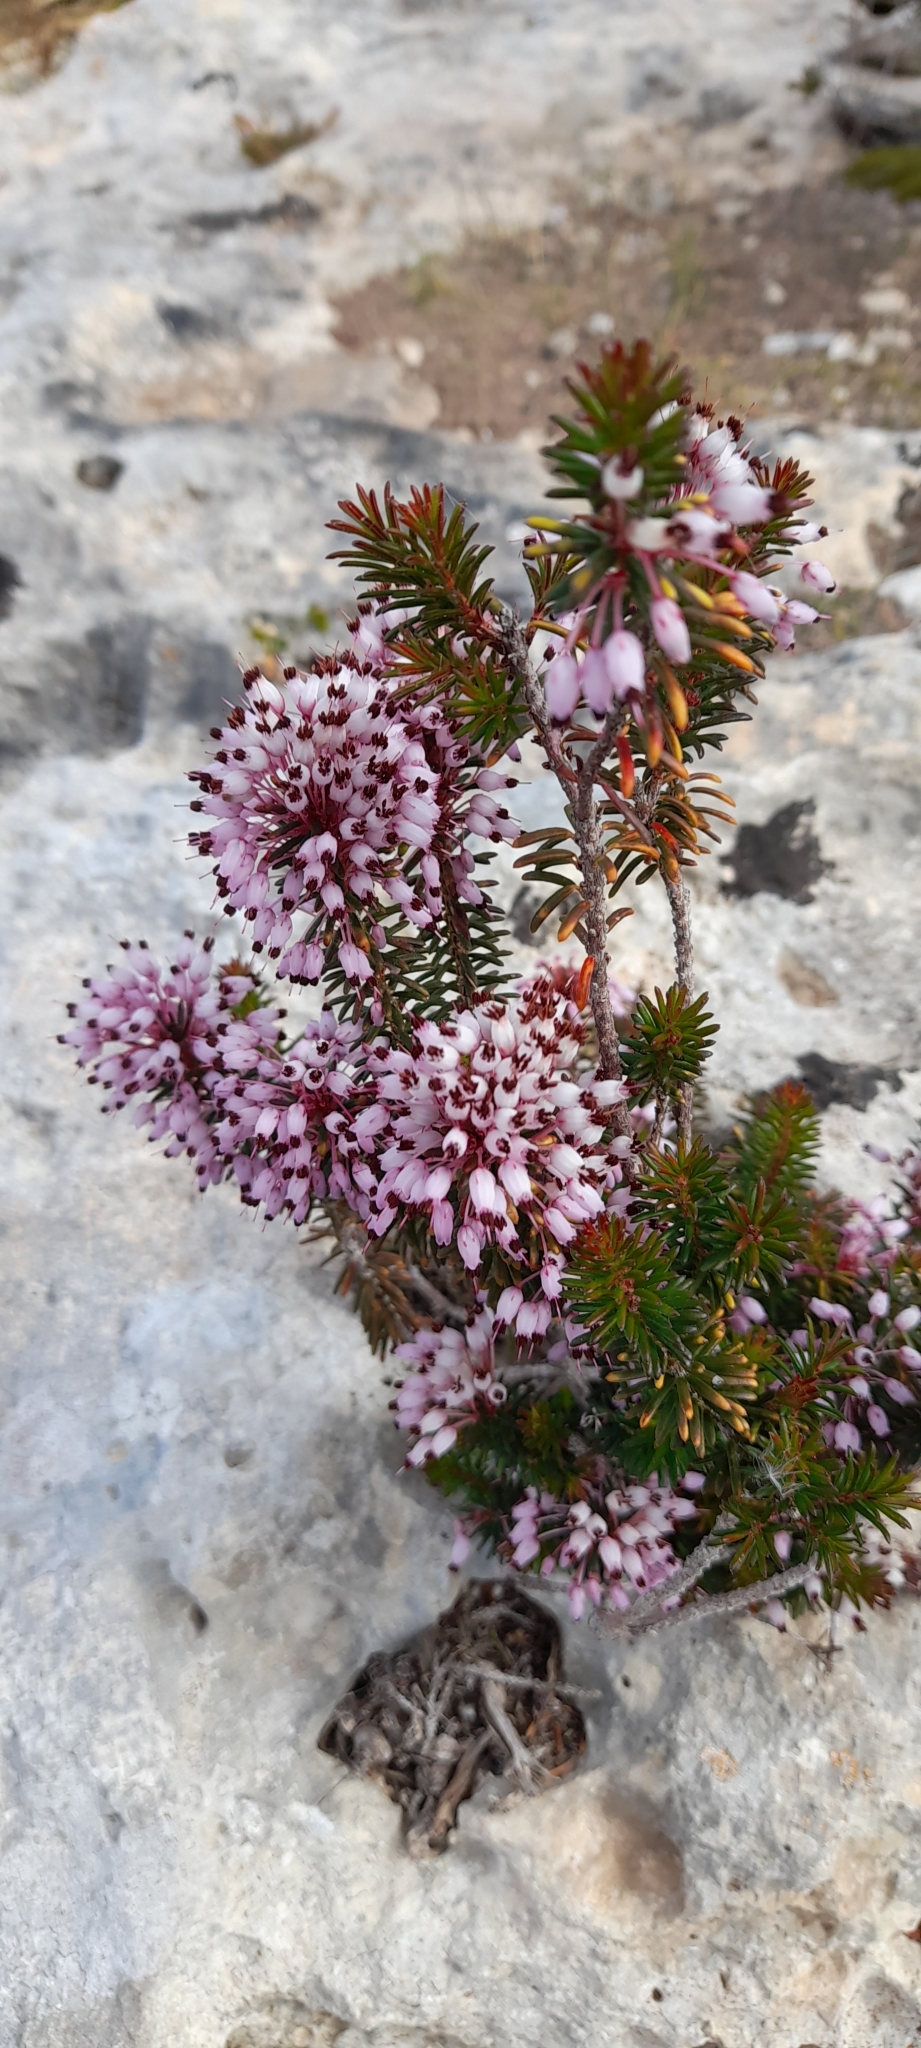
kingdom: Plantae
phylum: Tracheophyta
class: Magnoliopsida
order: Ericales
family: Ericaceae
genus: Erica
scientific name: Erica multiflora
